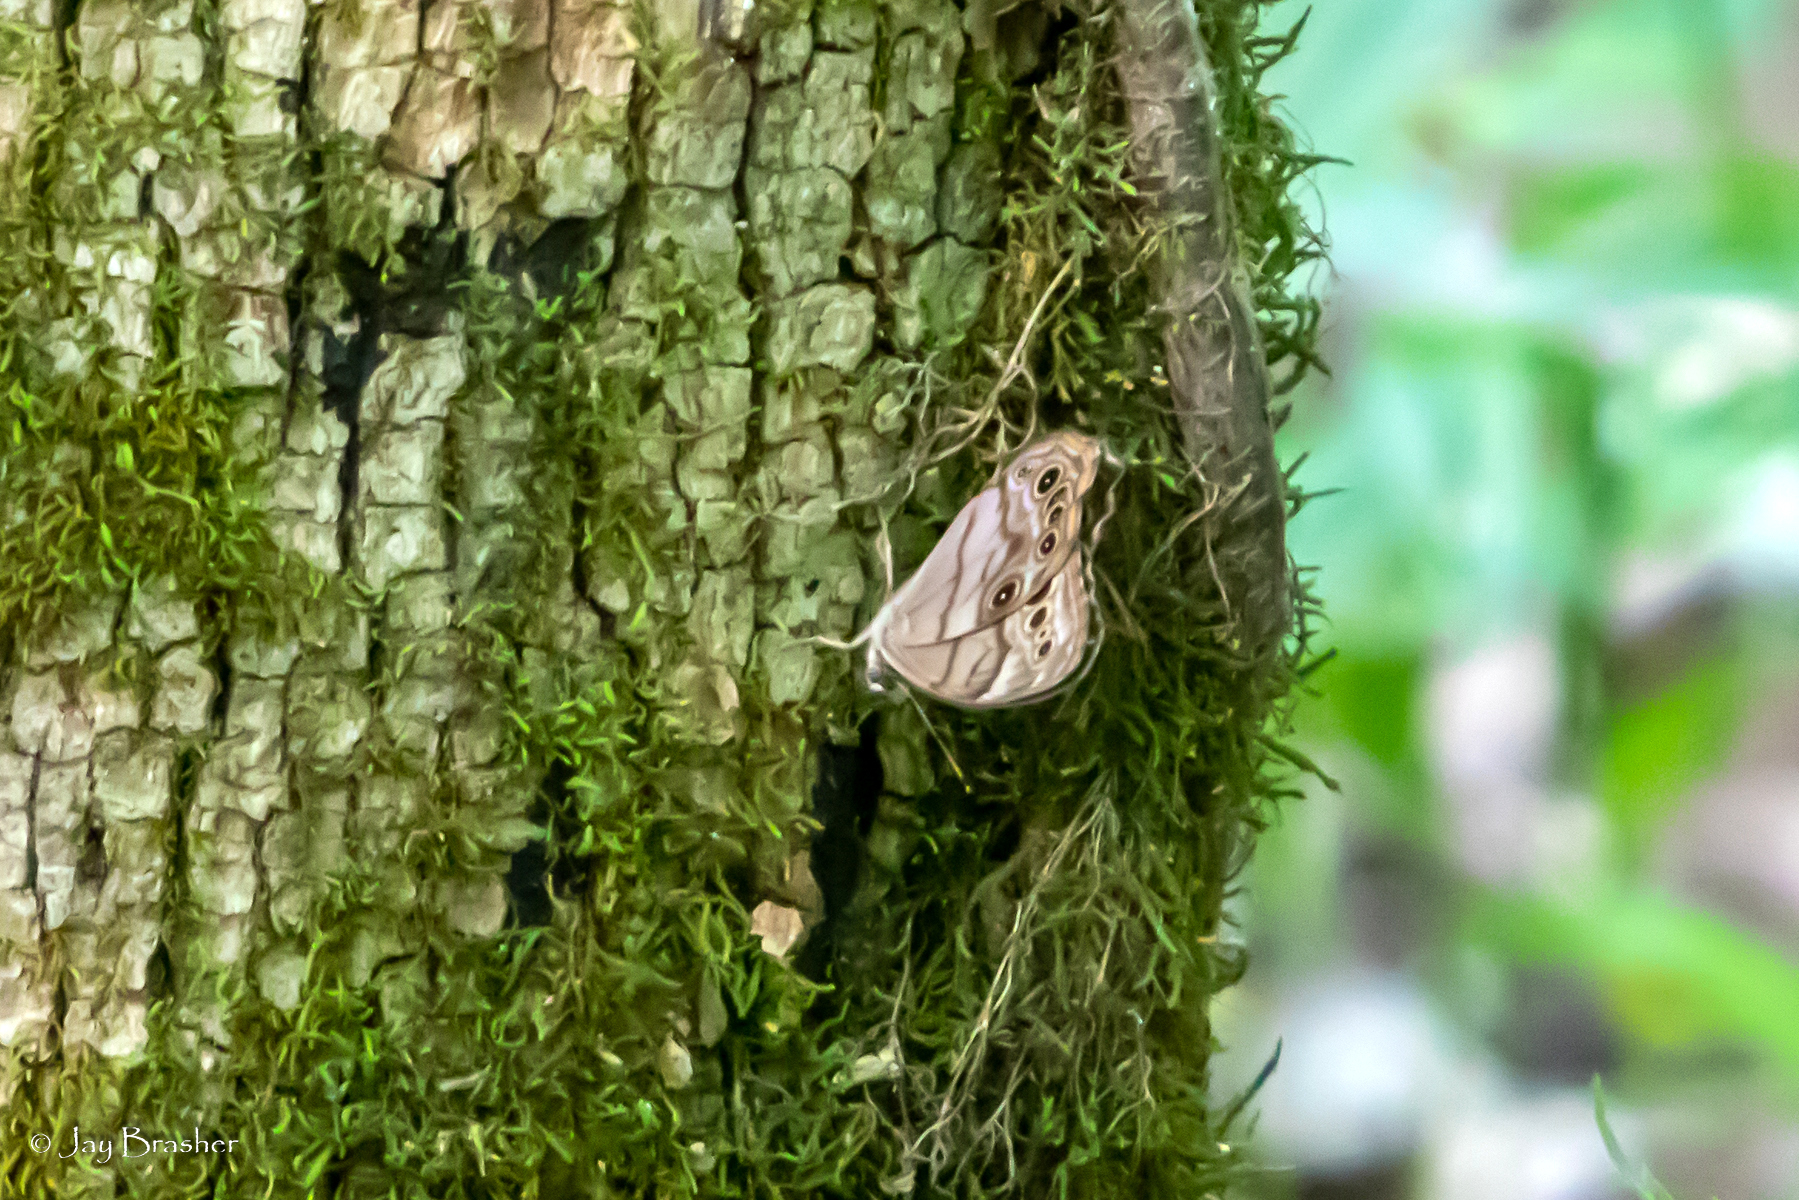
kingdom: Animalia
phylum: Arthropoda
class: Insecta
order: Lepidoptera
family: Nymphalidae
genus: Lethe
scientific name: Lethe anthedon
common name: Northern pearly-eye
